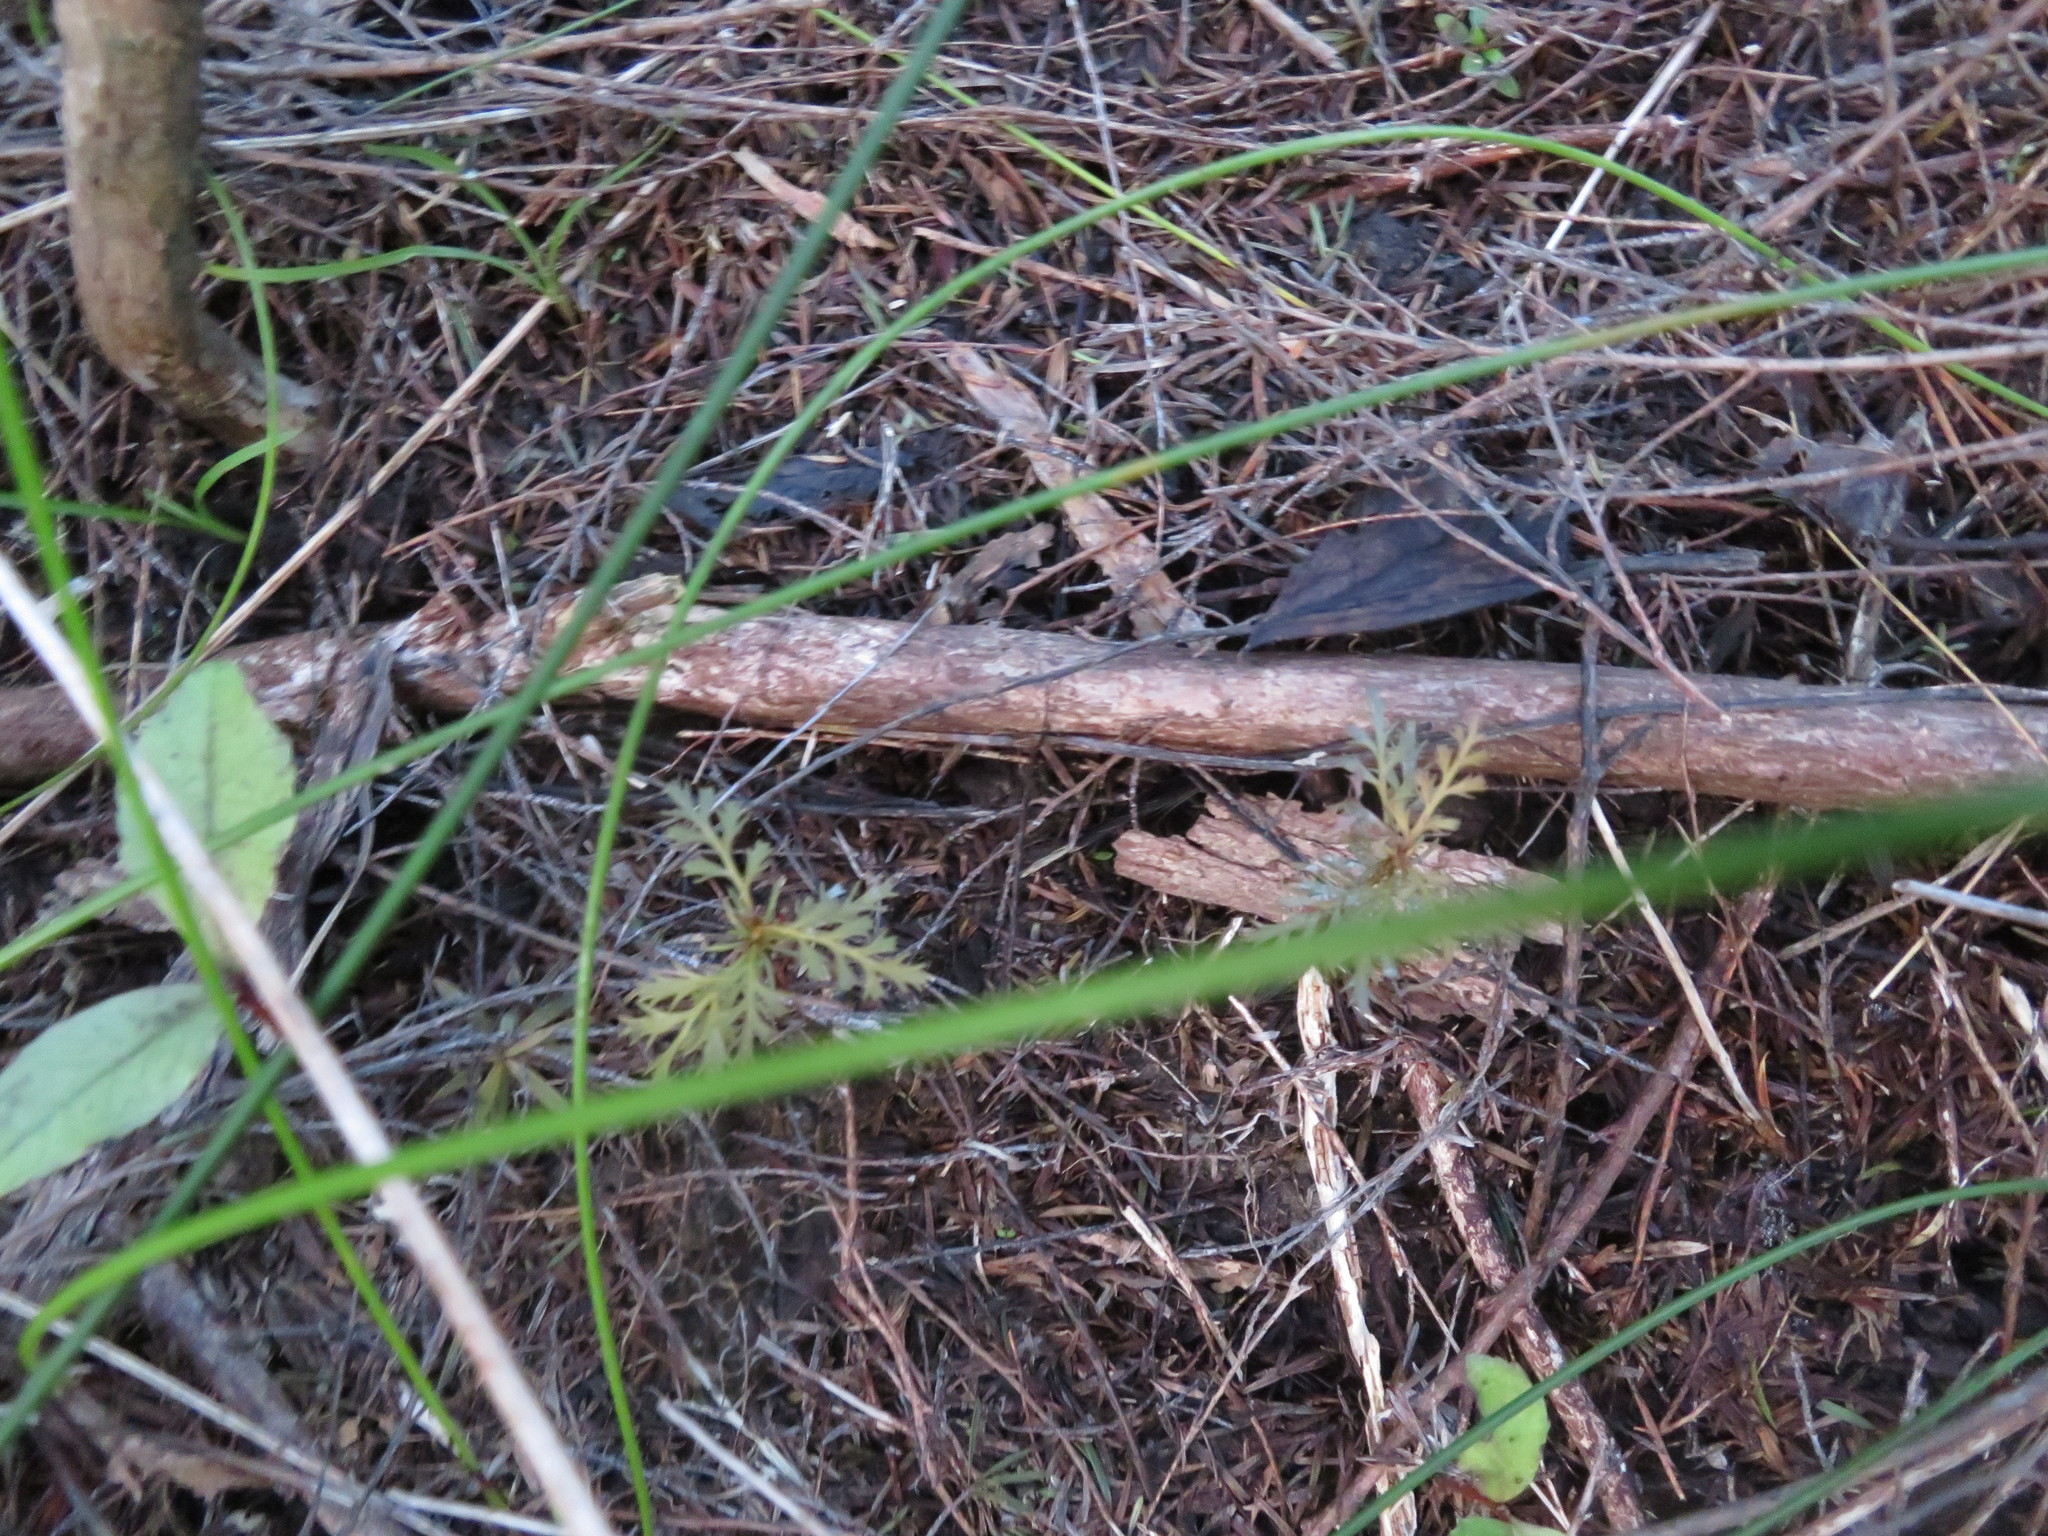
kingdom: Plantae
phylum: Tracheophyta
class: Pinopsida
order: Pinales
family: Phyllocladaceae
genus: Phyllocladus
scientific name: Phyllocladus trichomanoides
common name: Celery pine
